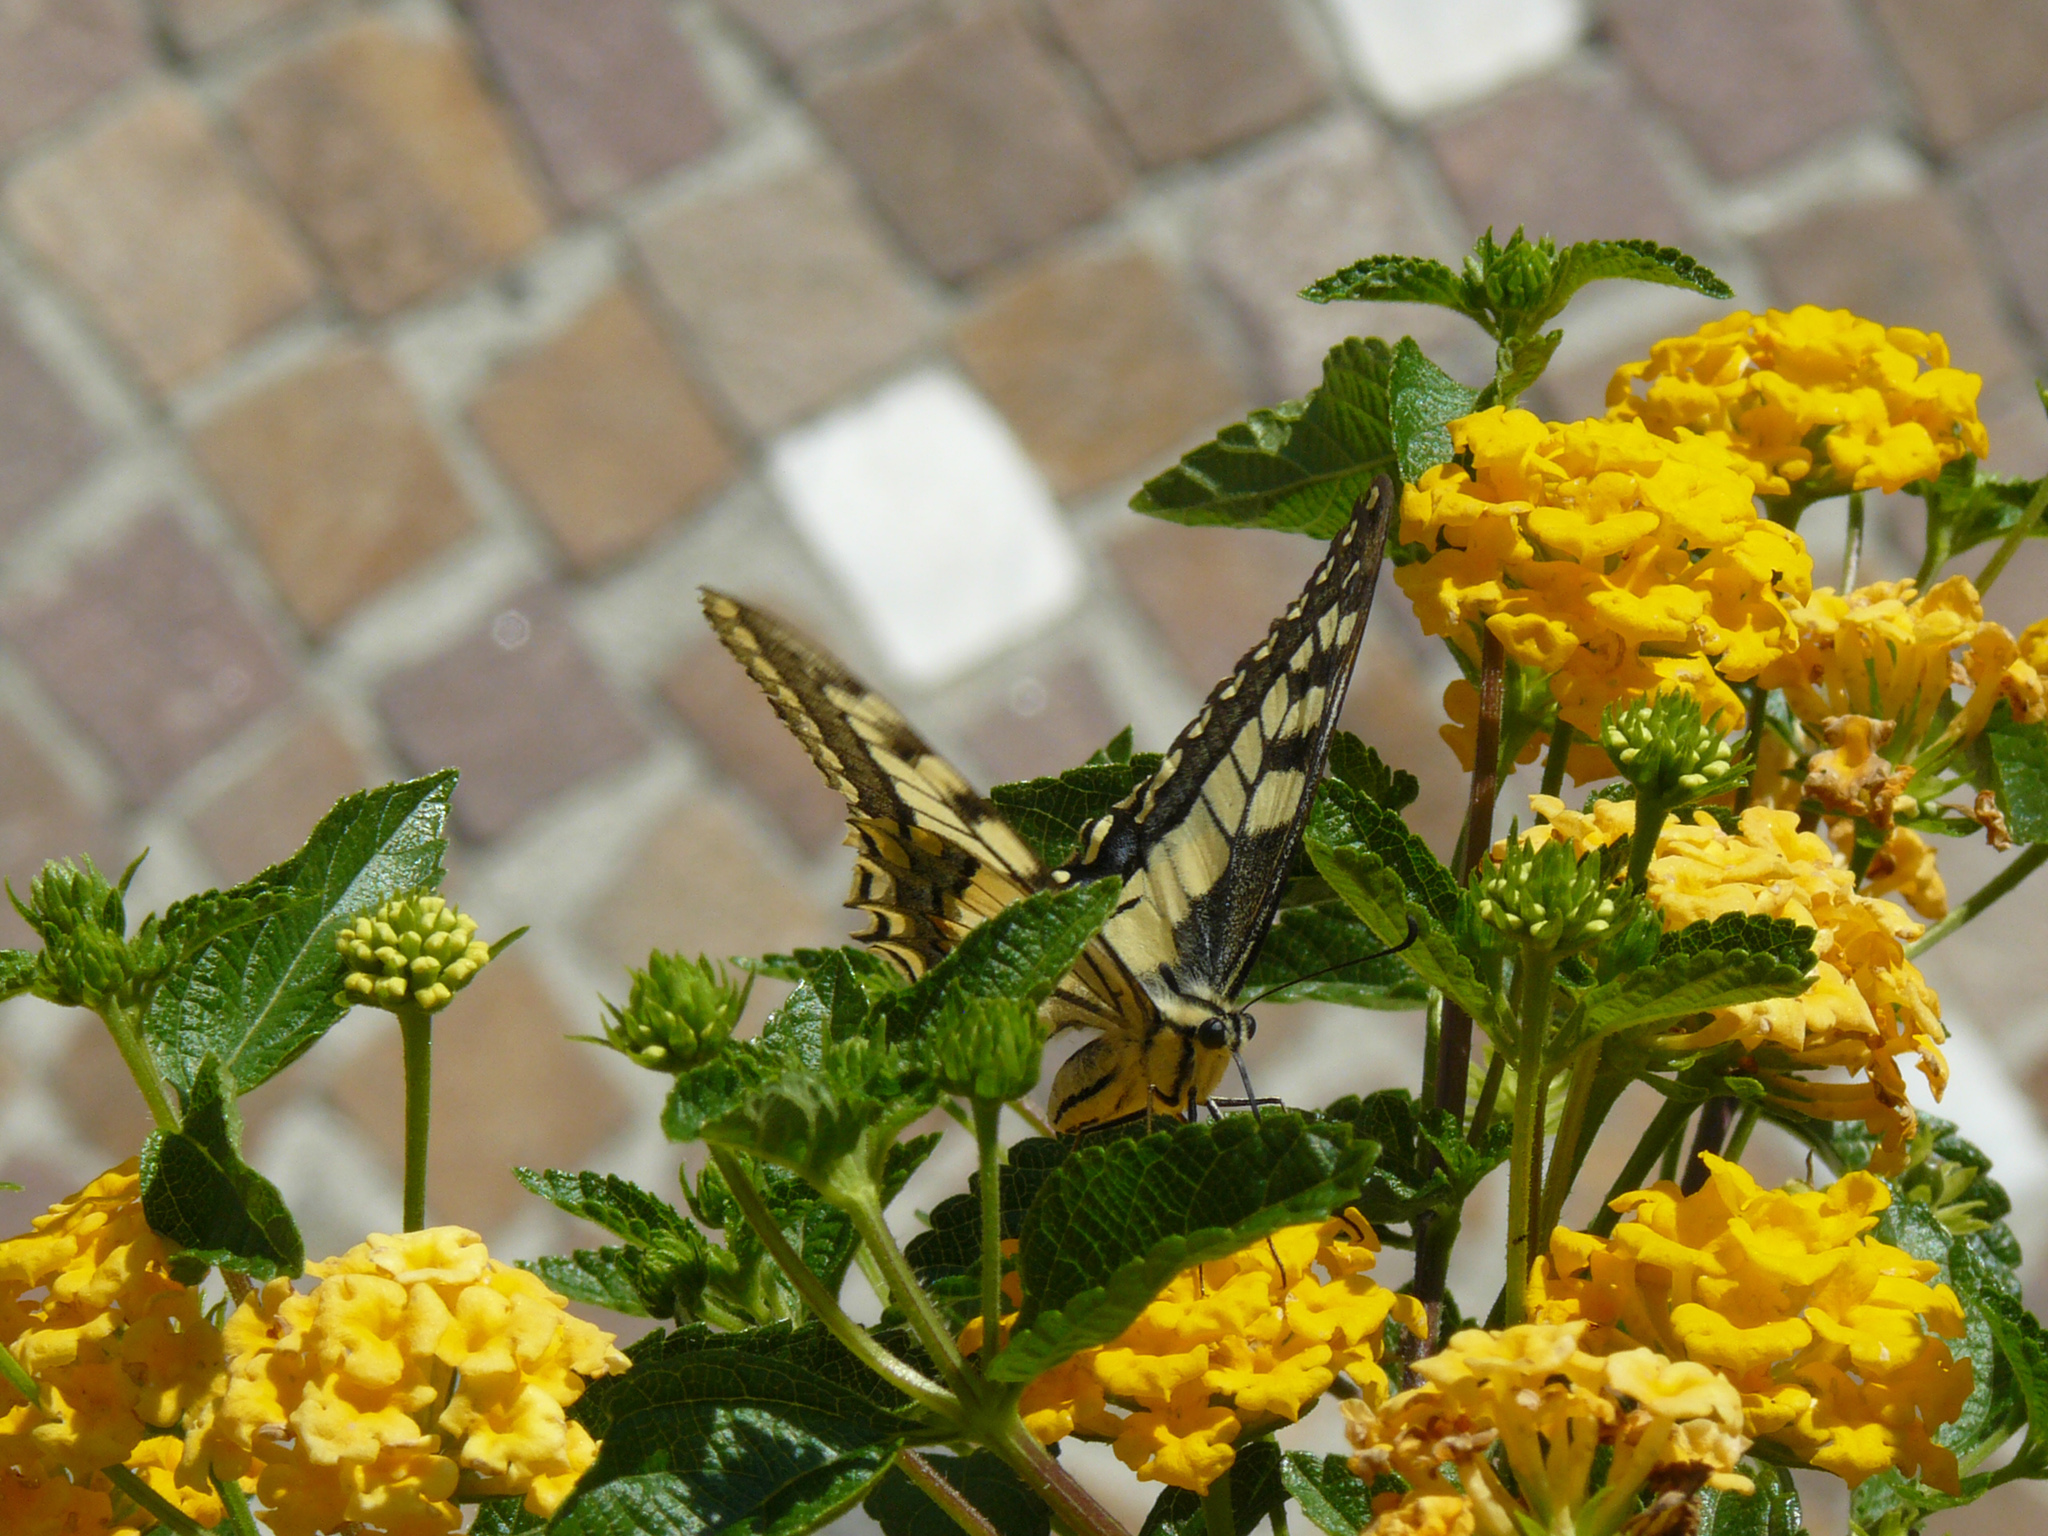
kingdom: Animalia
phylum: Arthropoda
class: Insecta
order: Lepidoptera
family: Papilionidae
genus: Papilio
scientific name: Papilio machaon
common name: Swallowtail
